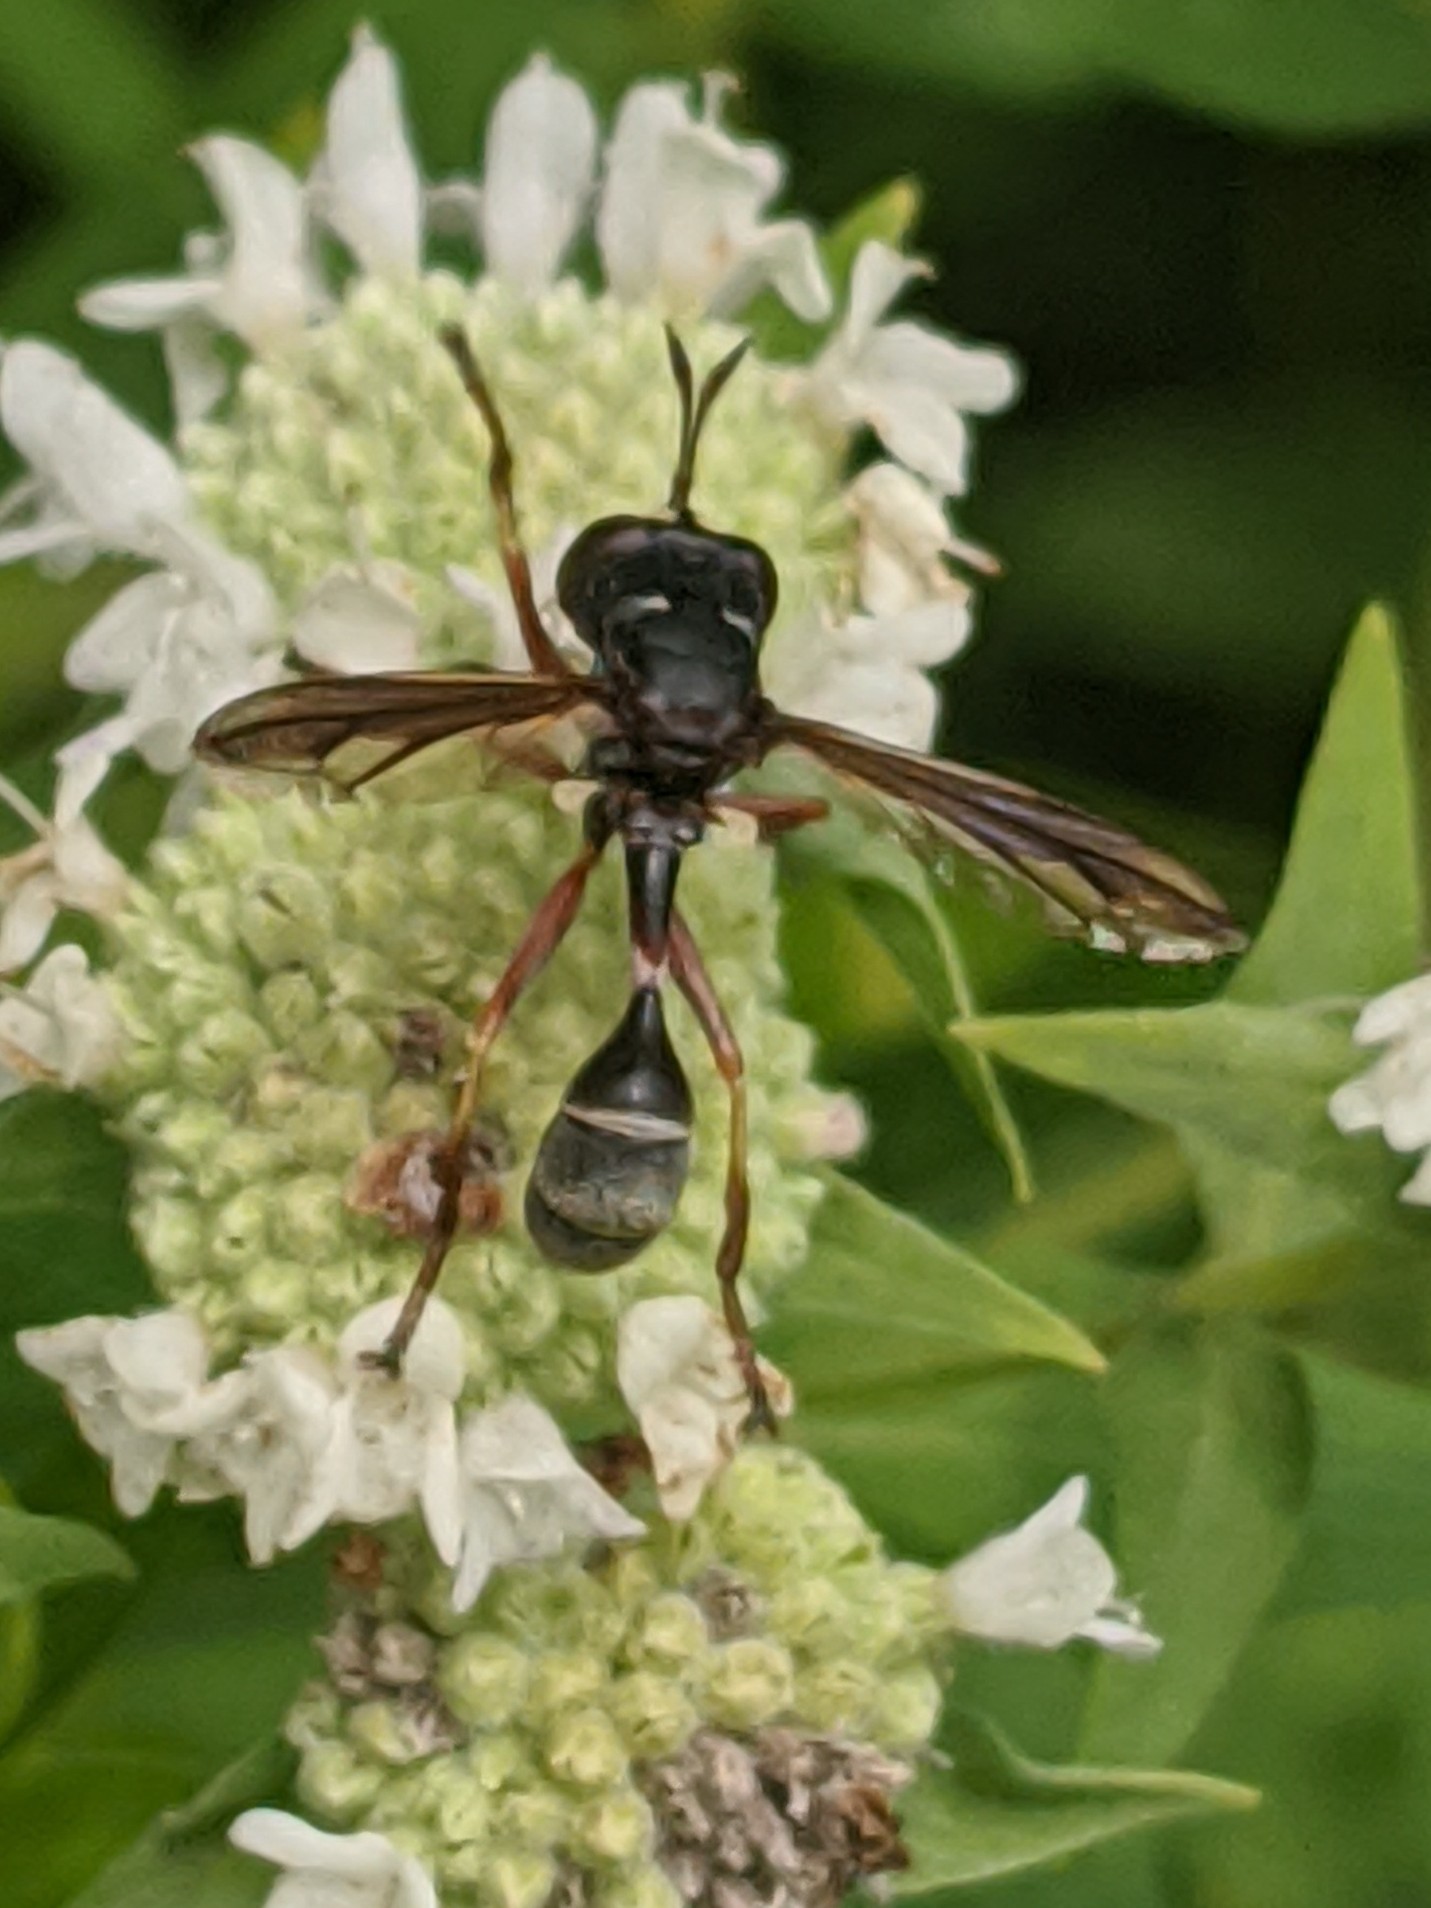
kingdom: Animalia
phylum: Arthropoda
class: Insecta
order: Diptera
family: Conopidae
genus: Physocephala
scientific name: Physocephala furcillata
